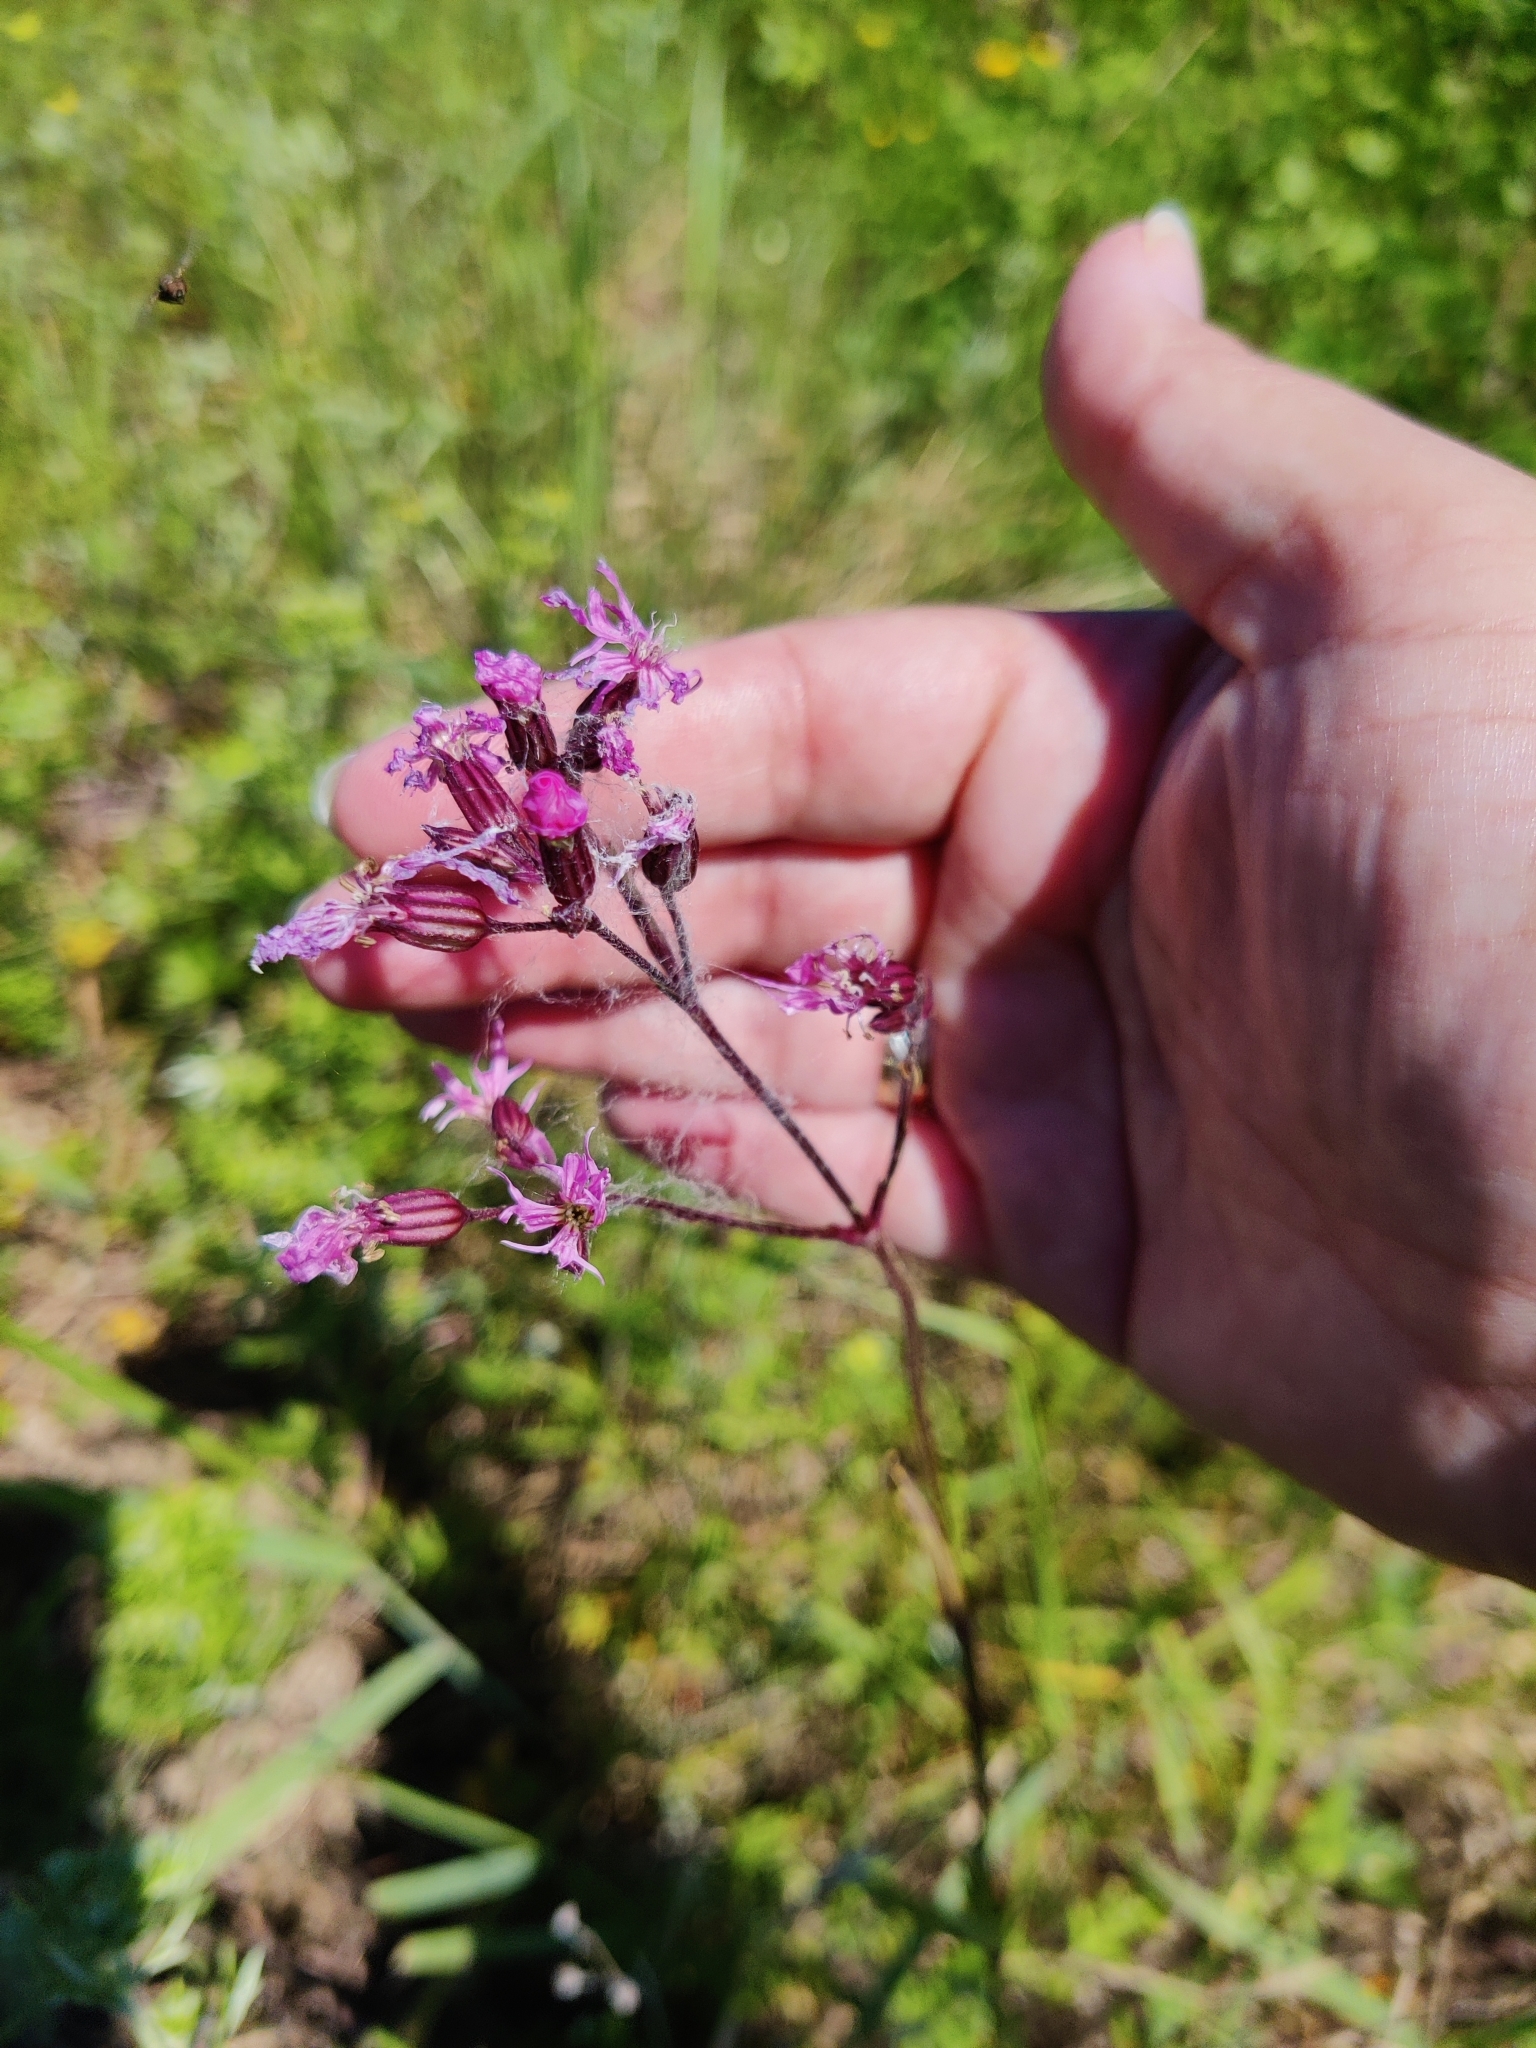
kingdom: Plantae
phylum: Tracheophyta
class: Magnoliopsida
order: Caryophyllales
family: Caryophyllaceae
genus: Viscaria
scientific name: Viscaria vulgaris
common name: Clammy campion
